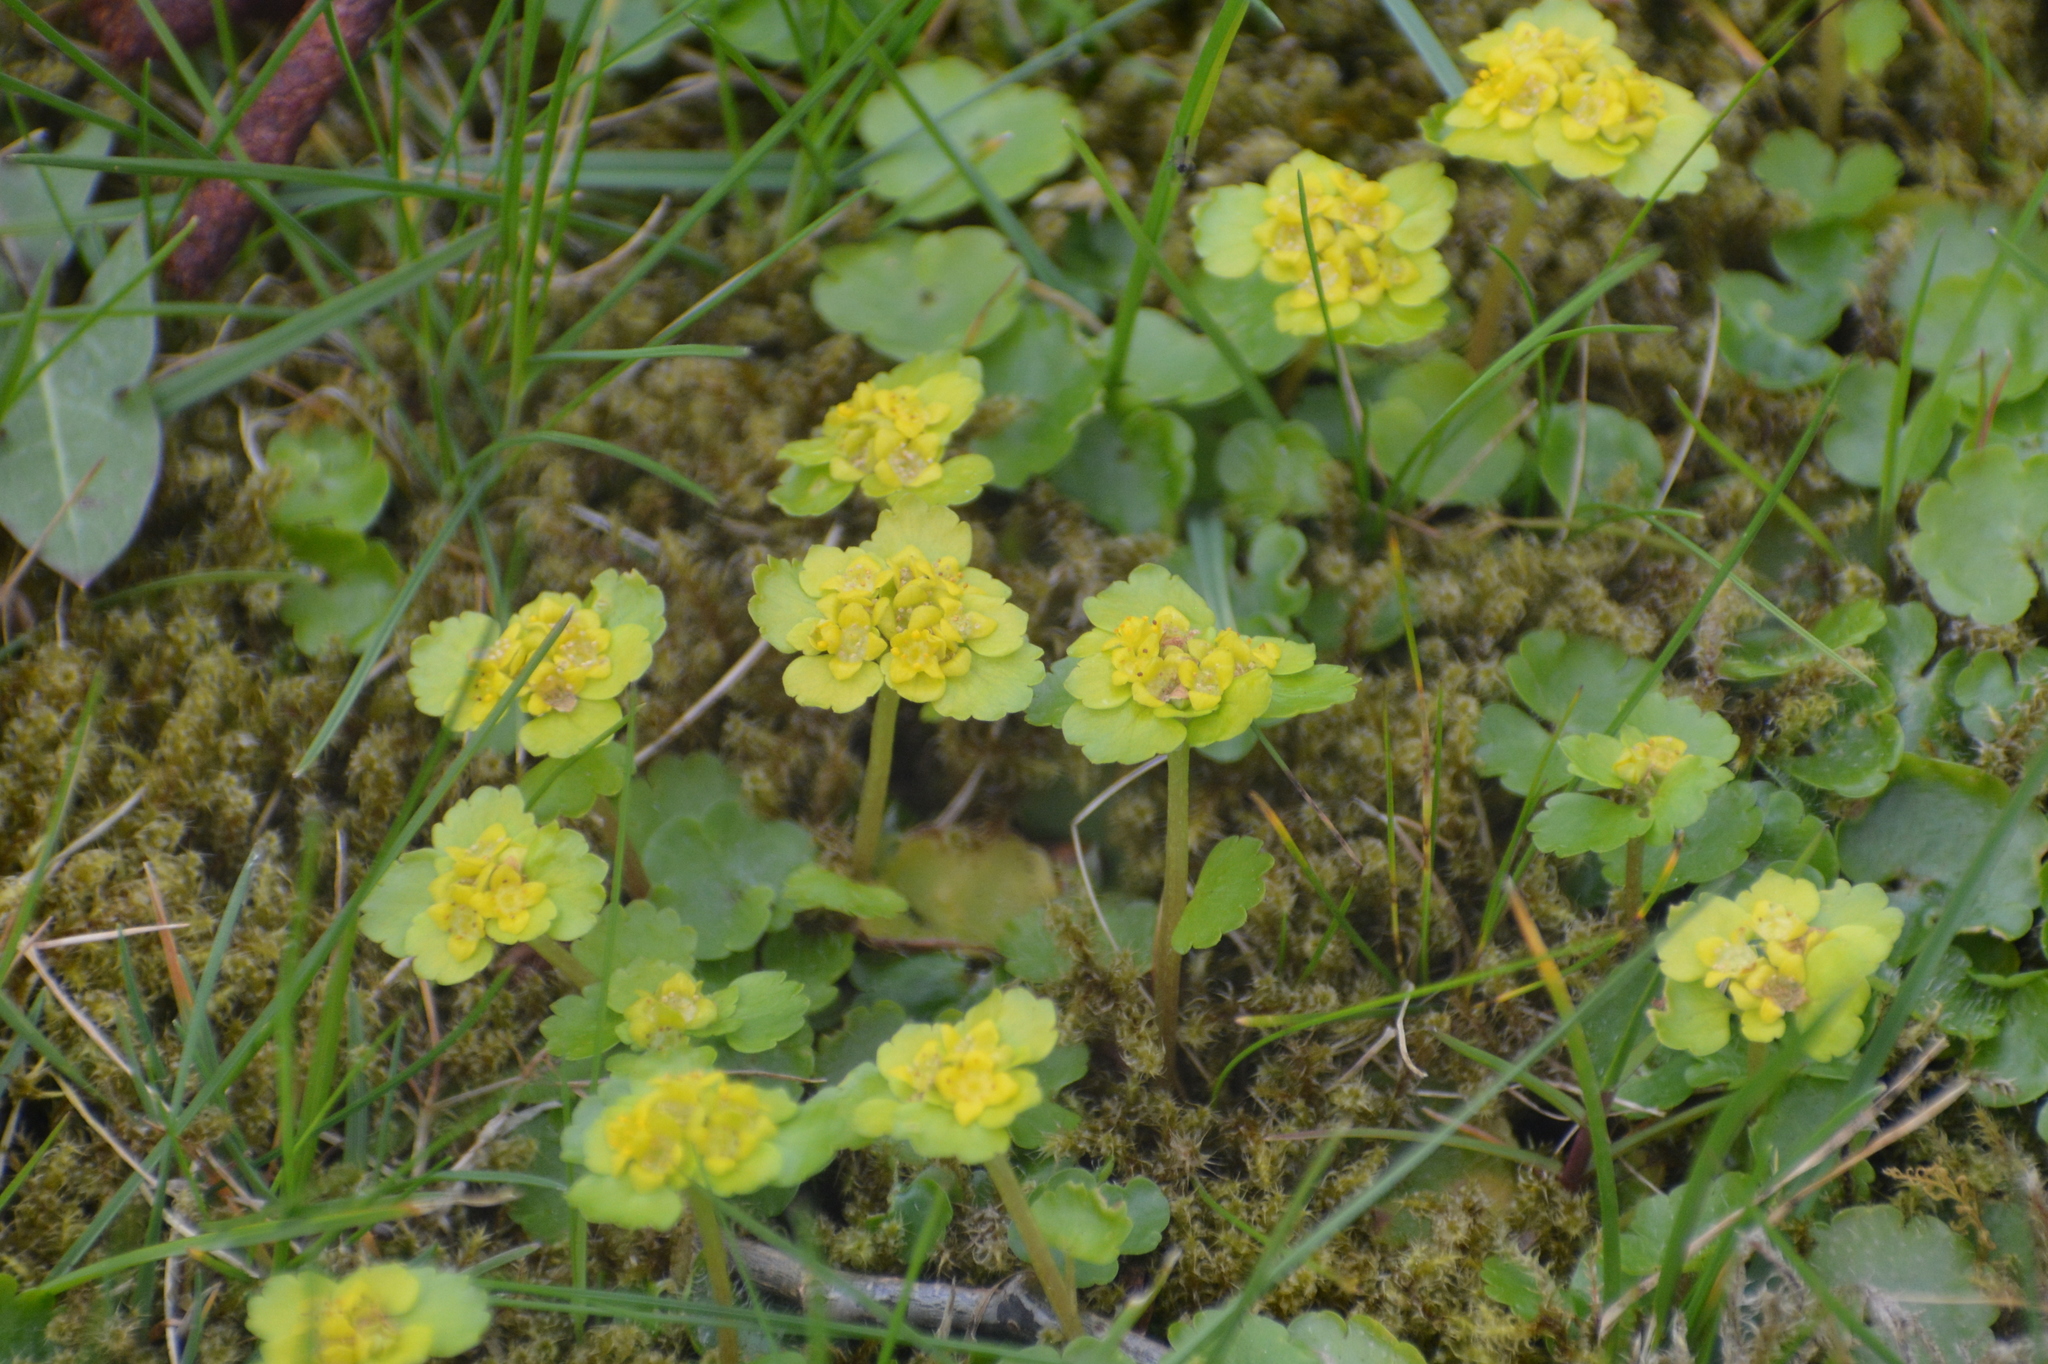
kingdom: Plantae
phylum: Tracheophyta
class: Magnoliopsida
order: Saxifragales
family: Saxifragaceae
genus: Chrysosplenium
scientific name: Chrysosplenium alternifolium
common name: Alternate-leaved golden-saxifrage
